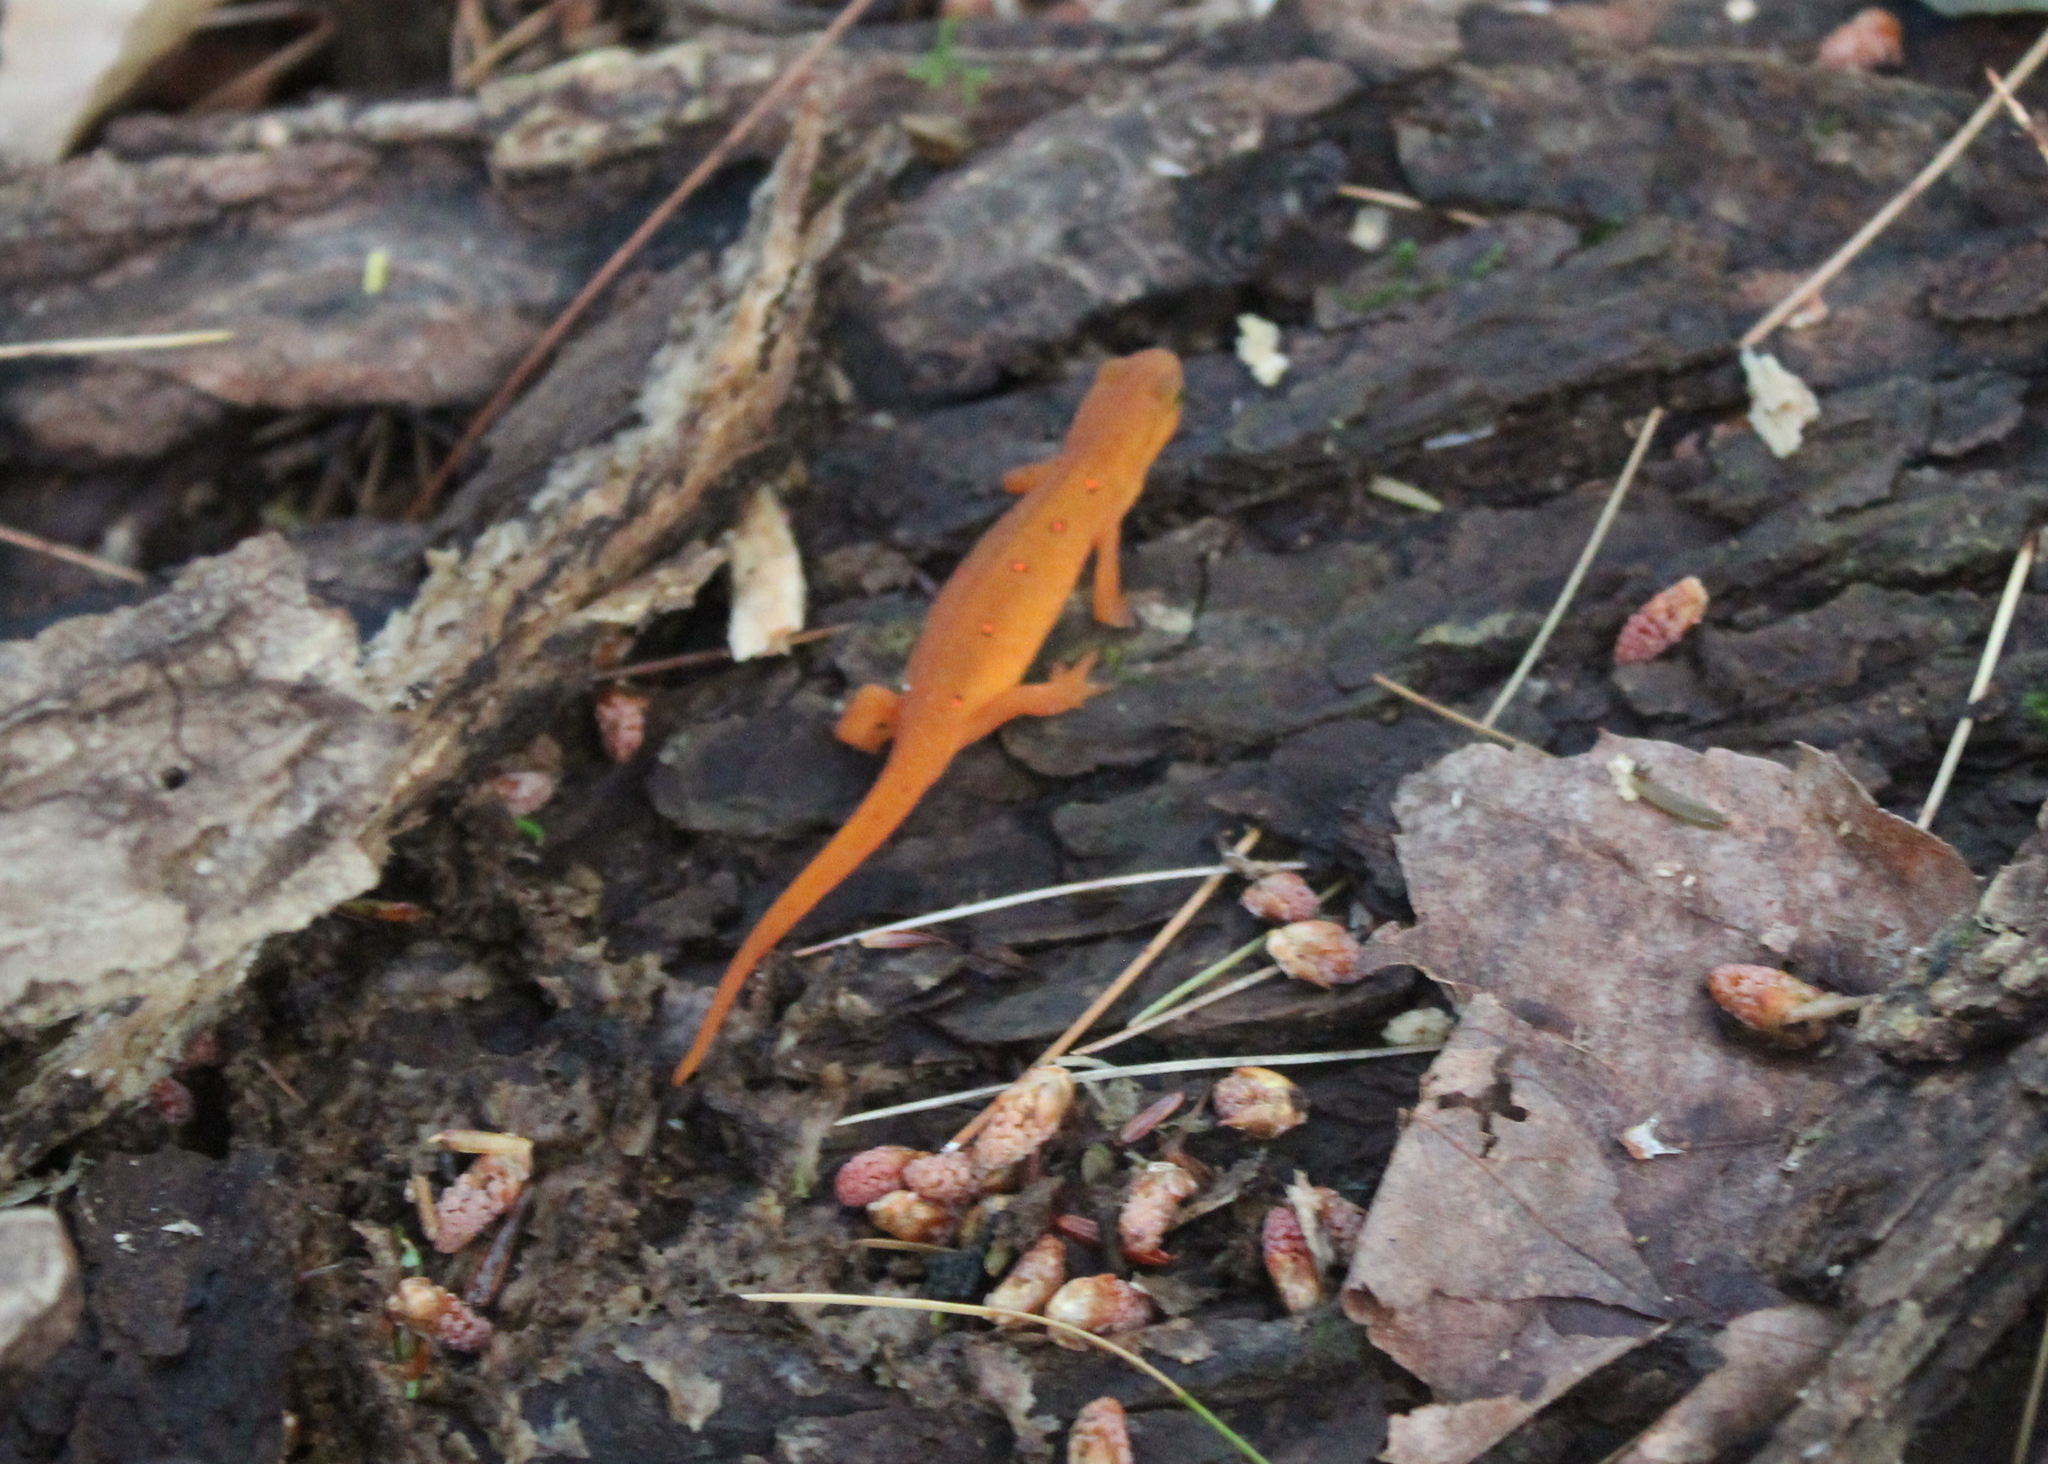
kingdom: Animalia
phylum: Chordata
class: Amphibia
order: Caudata
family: Salamandridae
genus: Notophthalmus
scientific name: Notophthalmus viridescens
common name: Eastern newt
